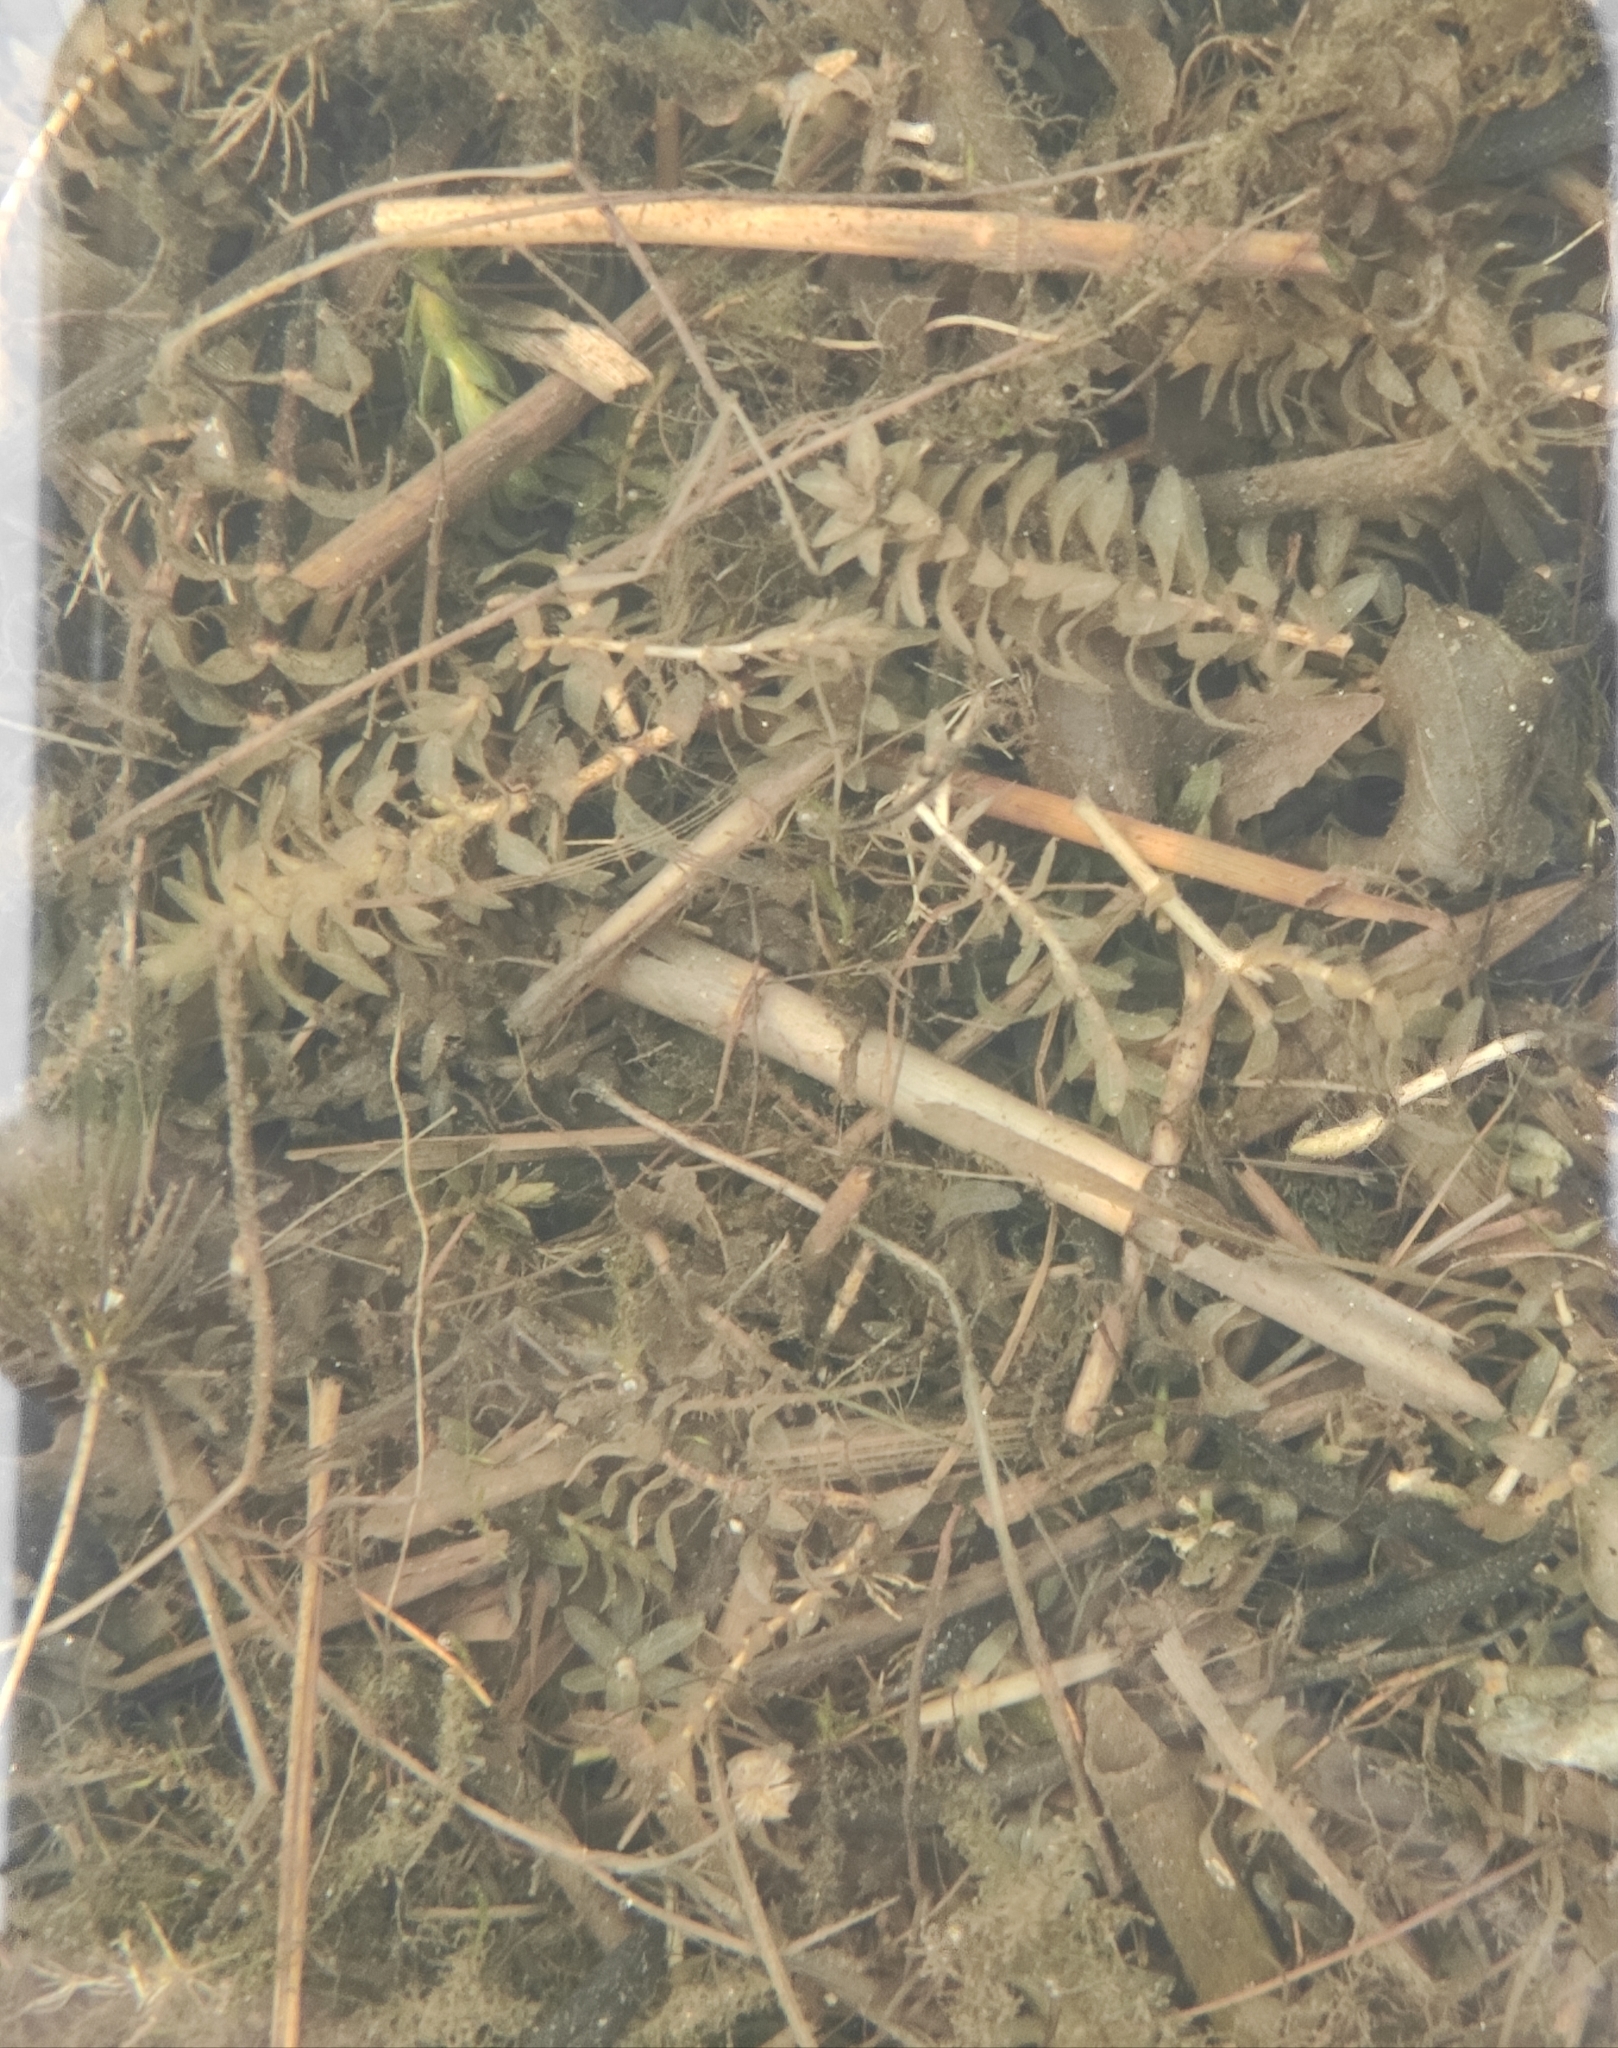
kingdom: Plantae
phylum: Tracheophyta
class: Liliopsida
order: Alismatales
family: Hydrocharitaceae
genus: Elodea
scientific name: Elodea canadensis
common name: Canadian waterweed
